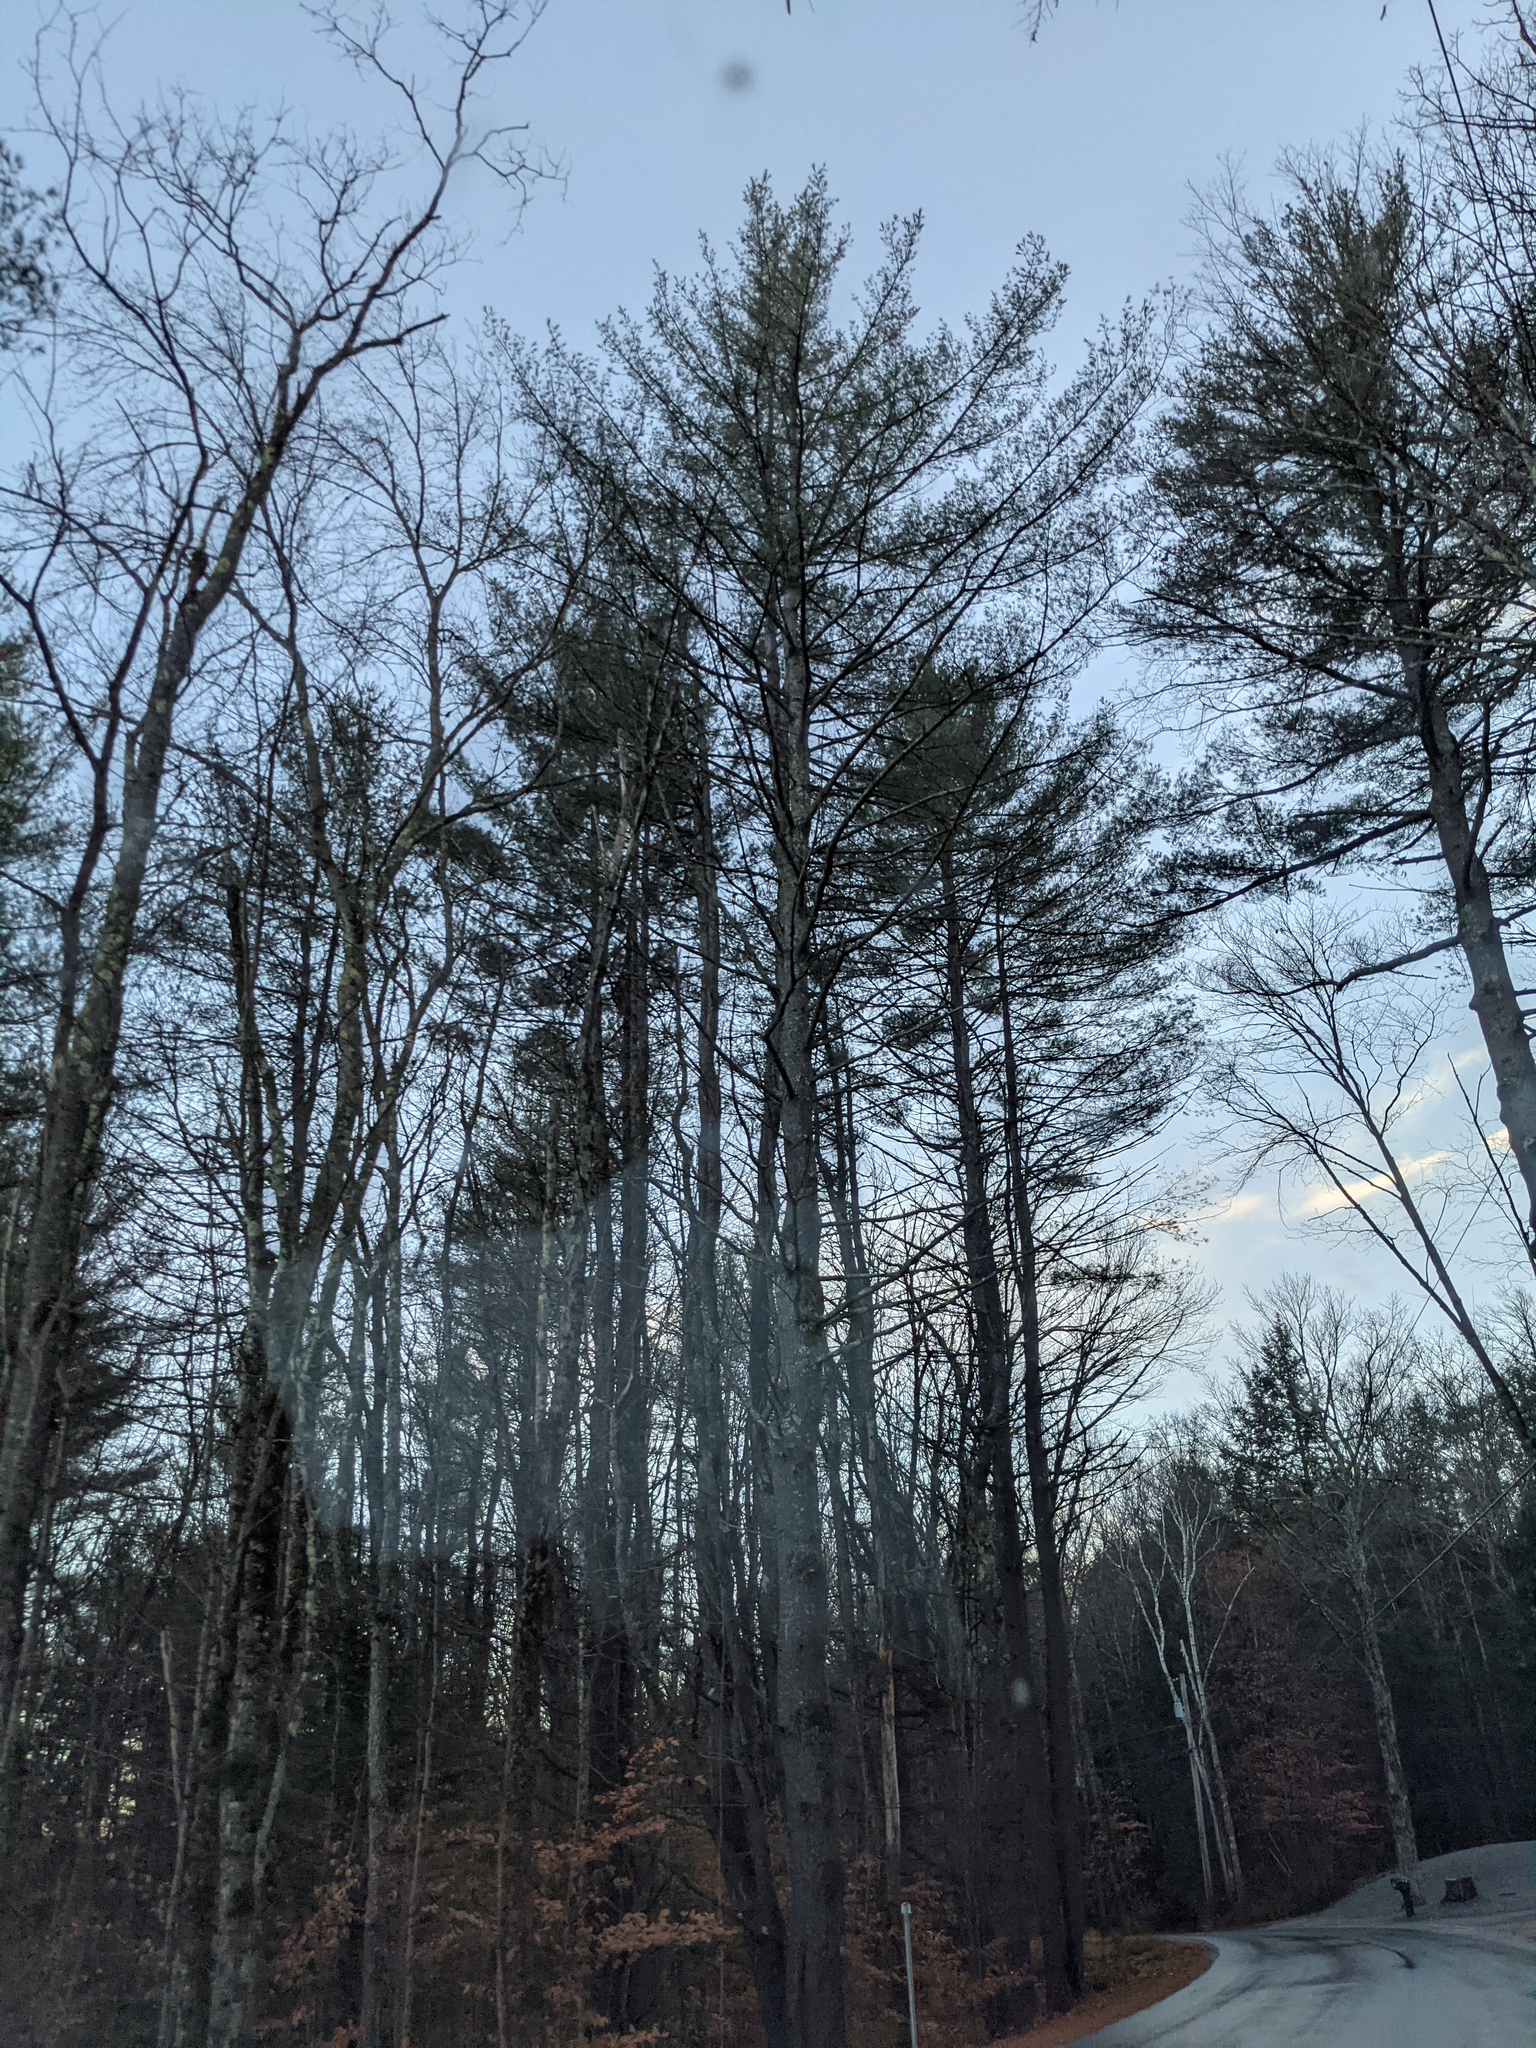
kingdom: Plantae
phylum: Tracheophyta
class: Pinopsida
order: Pinales
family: Pinaceae
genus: Pinus
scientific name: Pinus strobus
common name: Weymouth pine
